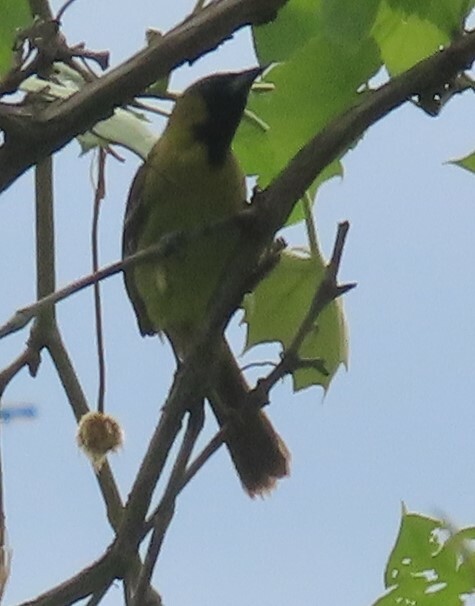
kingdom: Animalia
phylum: Chordata
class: Aves
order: Passeriformes
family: Icteridae
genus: Icterus
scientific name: Icterus spurius
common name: Orchard oriole
